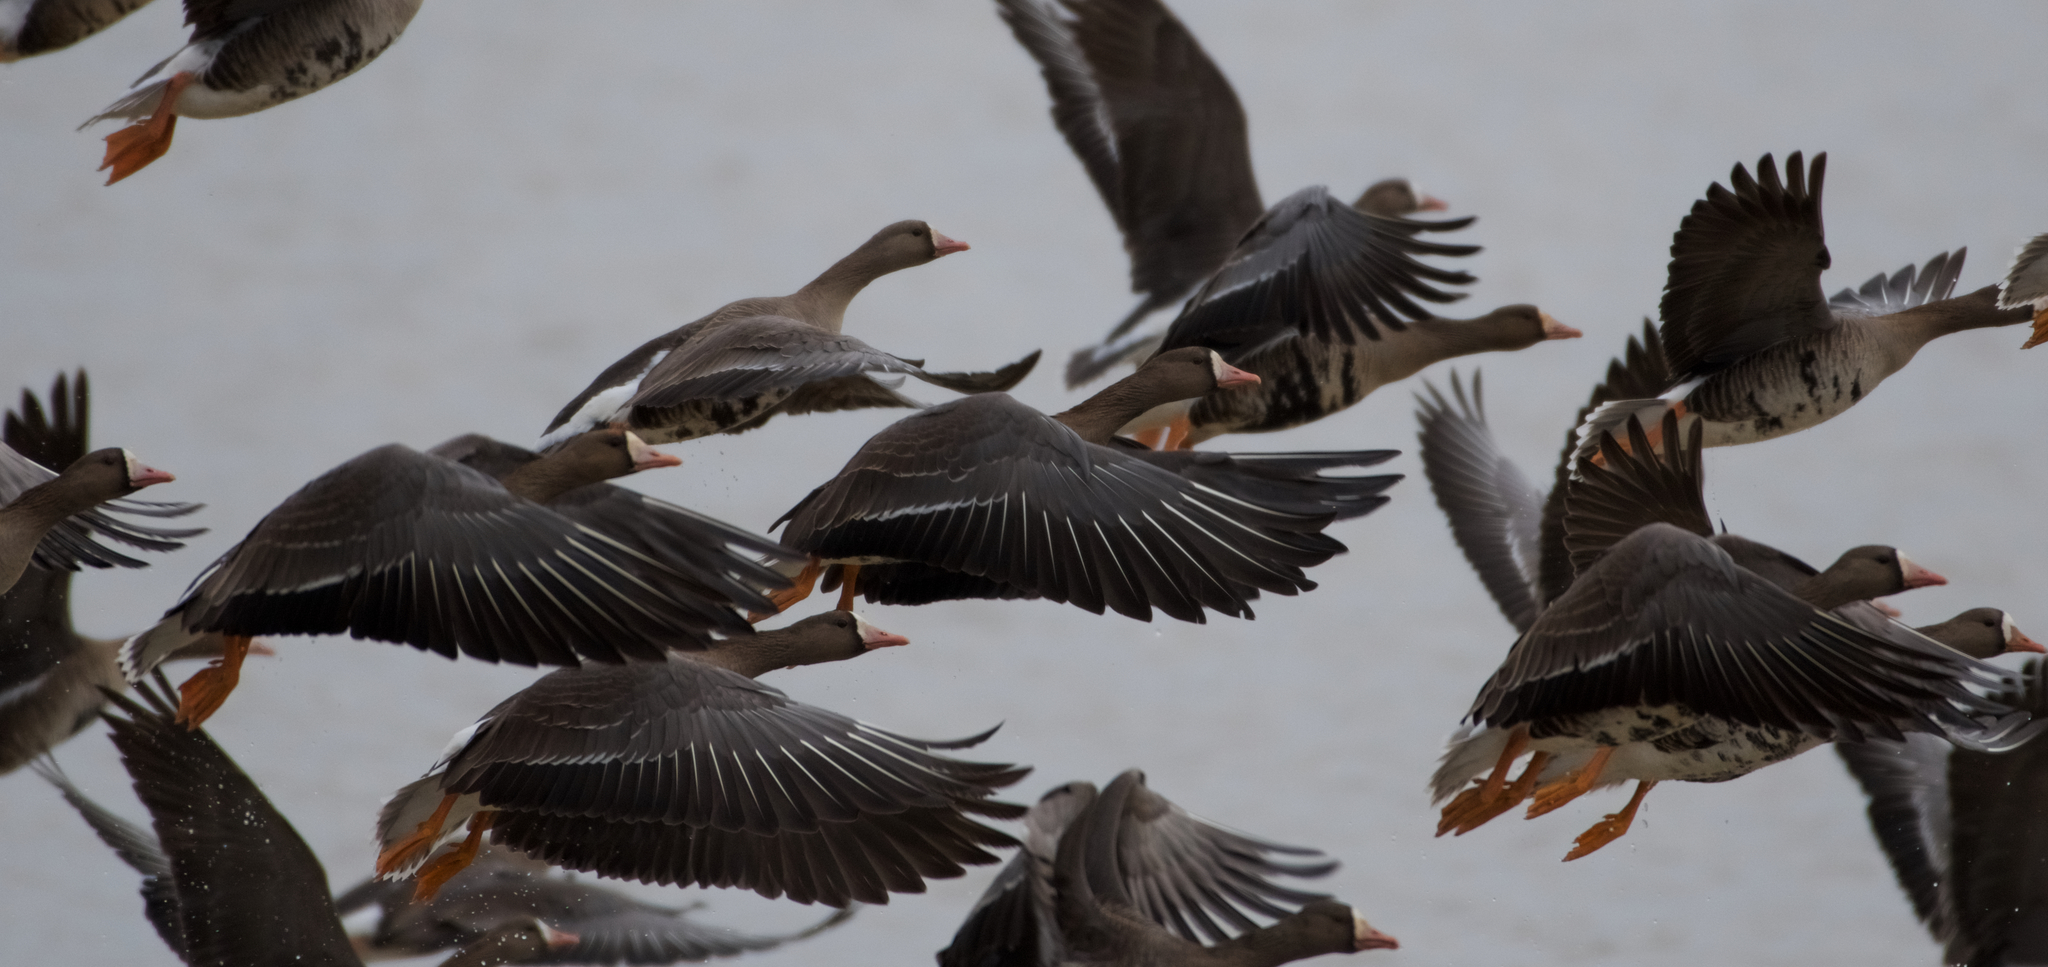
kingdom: Animalia
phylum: Chordata
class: Aves
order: Anseriformes
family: Anatidae
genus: Anser
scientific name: Anser albifrons
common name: Greater white-fronted goose
